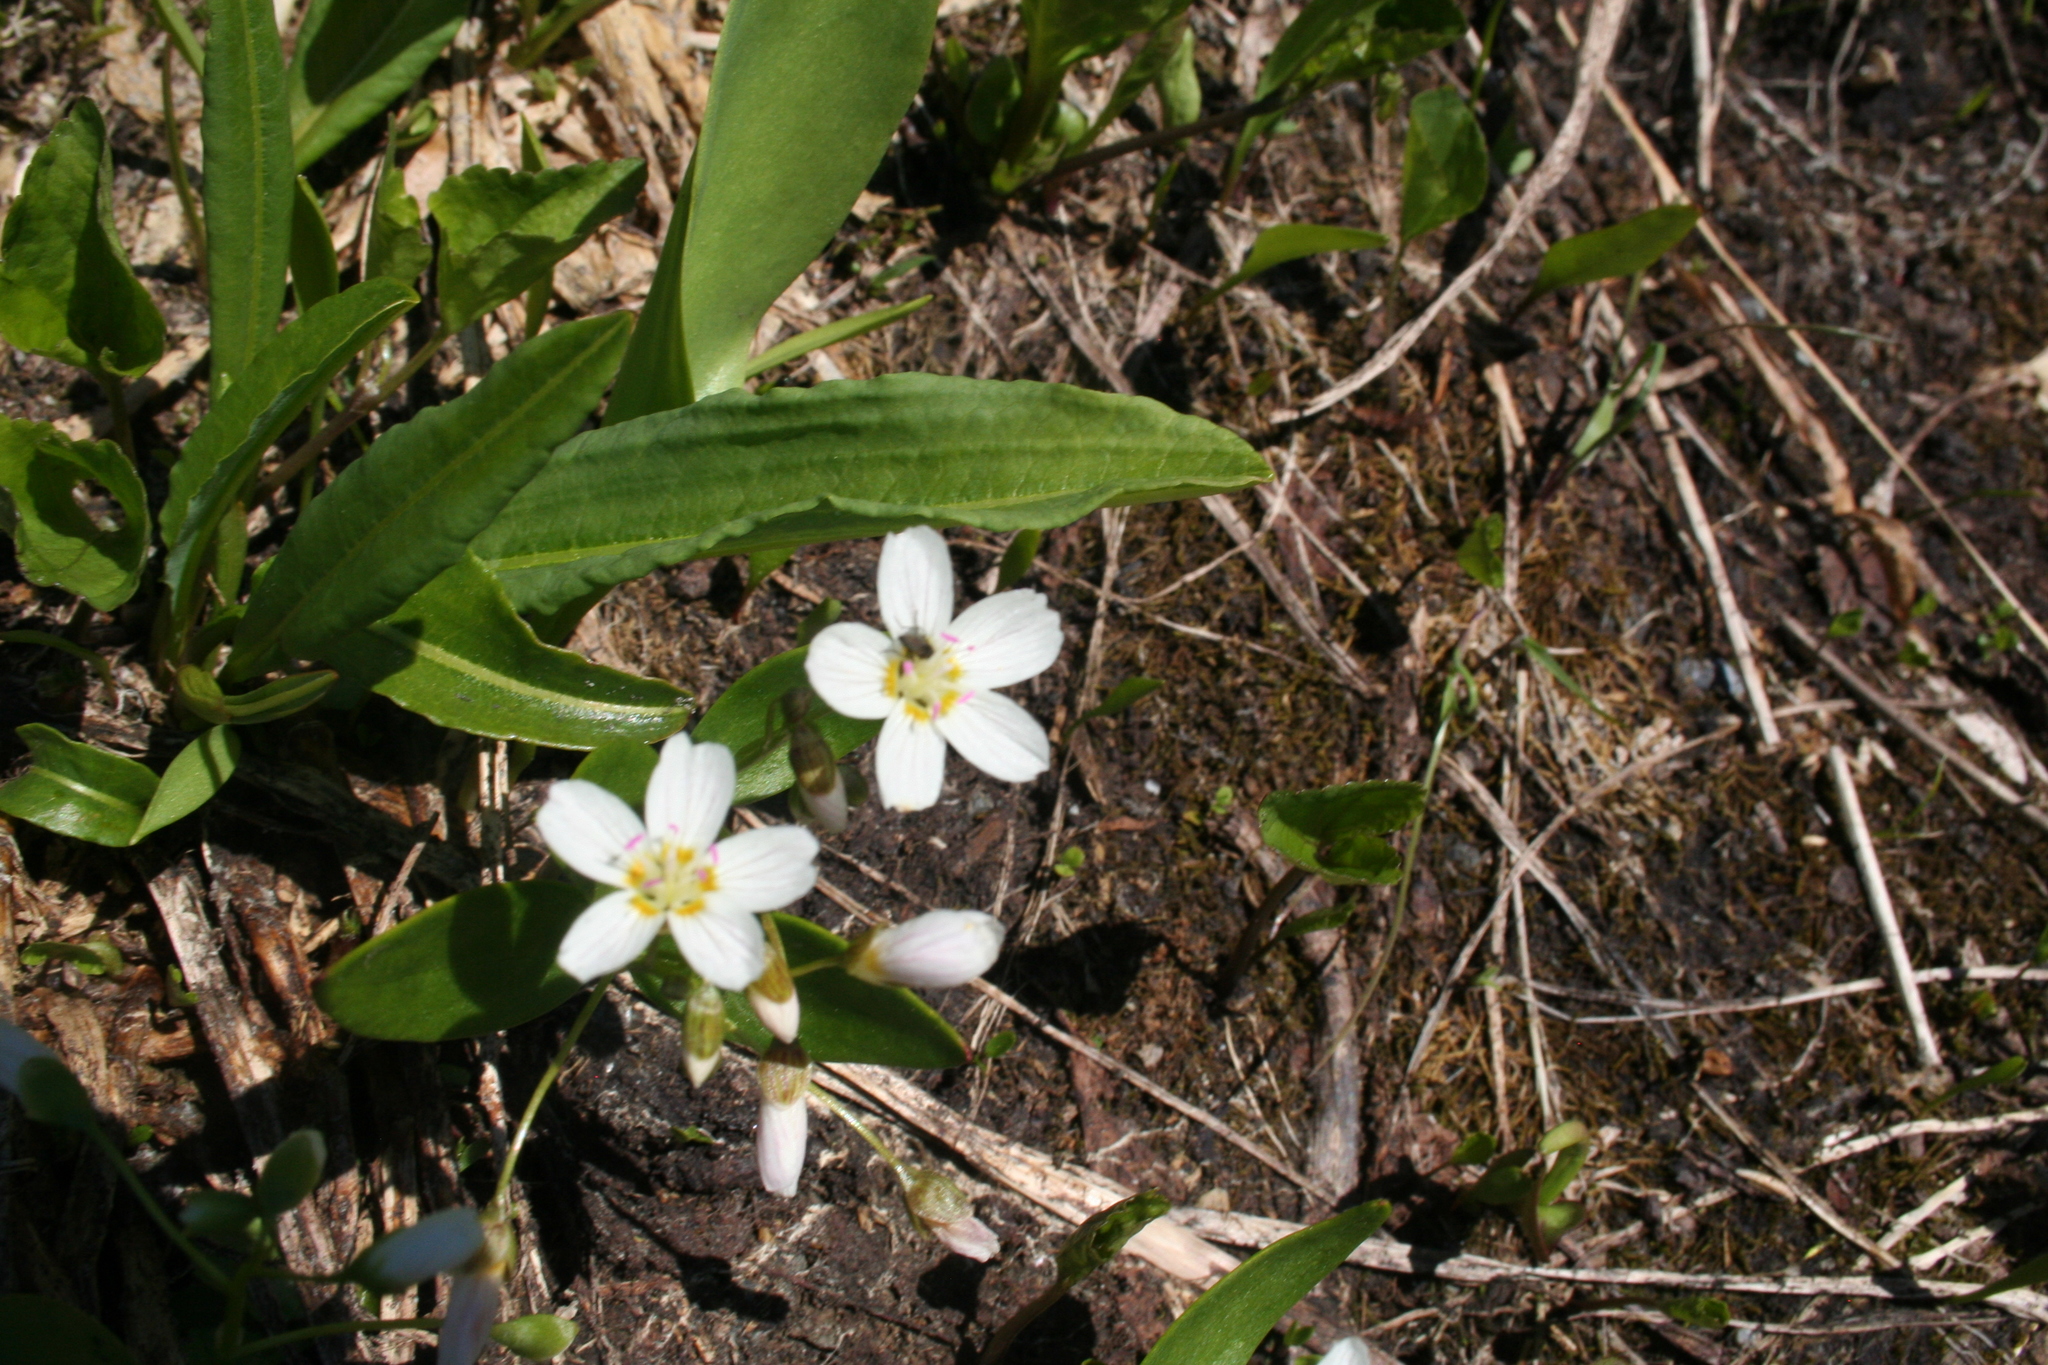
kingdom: Plantae
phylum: Tracheophyta
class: Magnoliopsida
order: Caryophyllales
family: Montiaceae
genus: Claytonia
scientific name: Claytonia lanceolata
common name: Western spring-beauty
